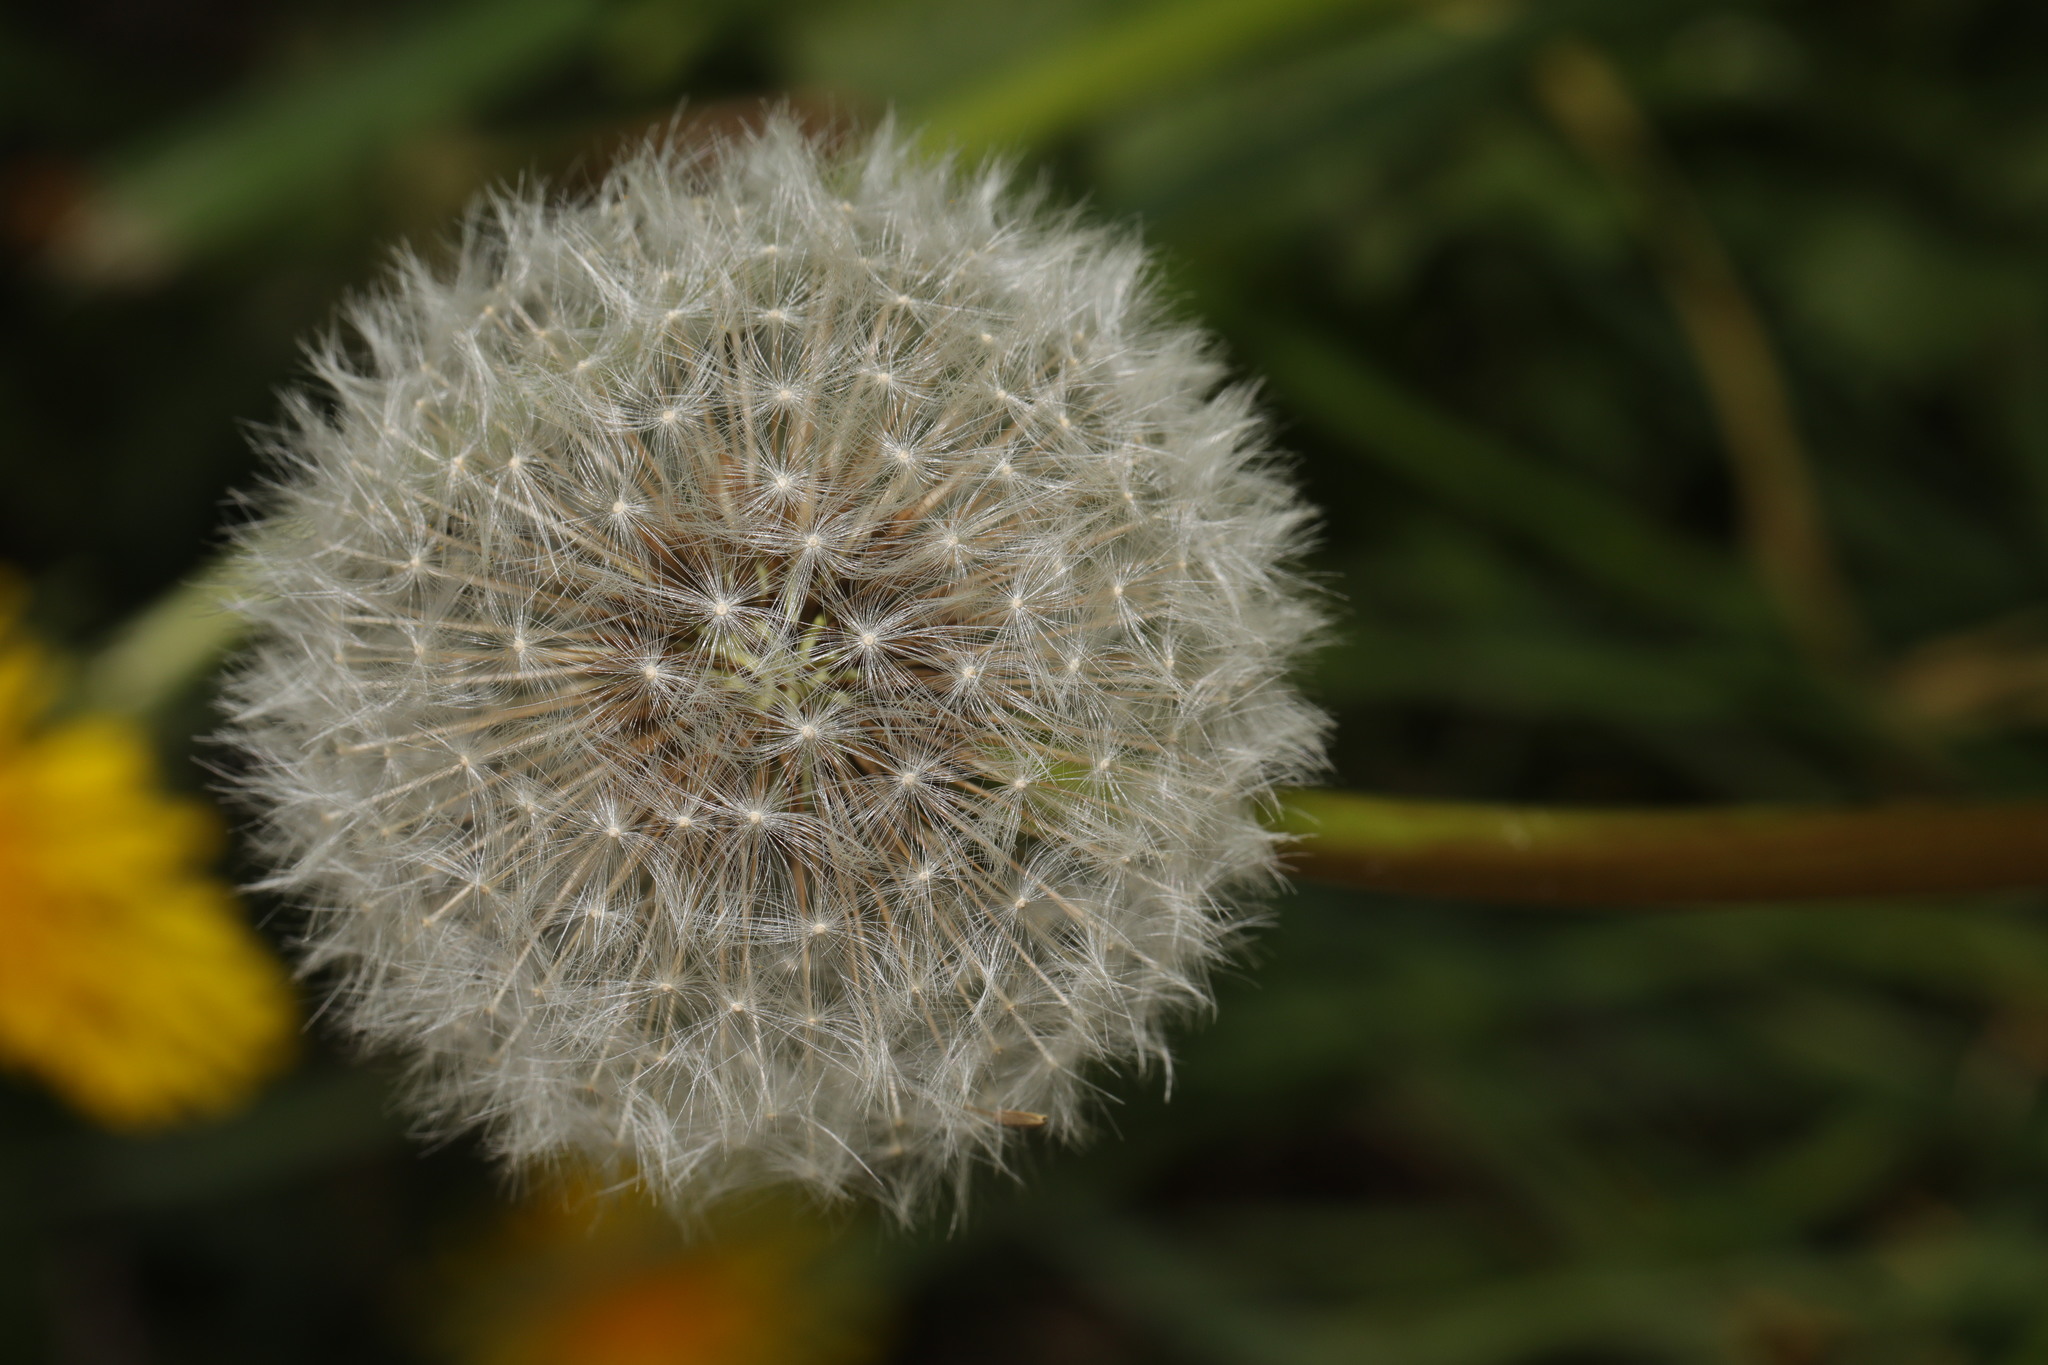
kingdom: Plantae
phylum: Tracheophyta
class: Magnoliopsida
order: Asterales
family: Asteraceae
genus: Taraxacum
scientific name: Taraxacum officinale
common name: Common dandelion
